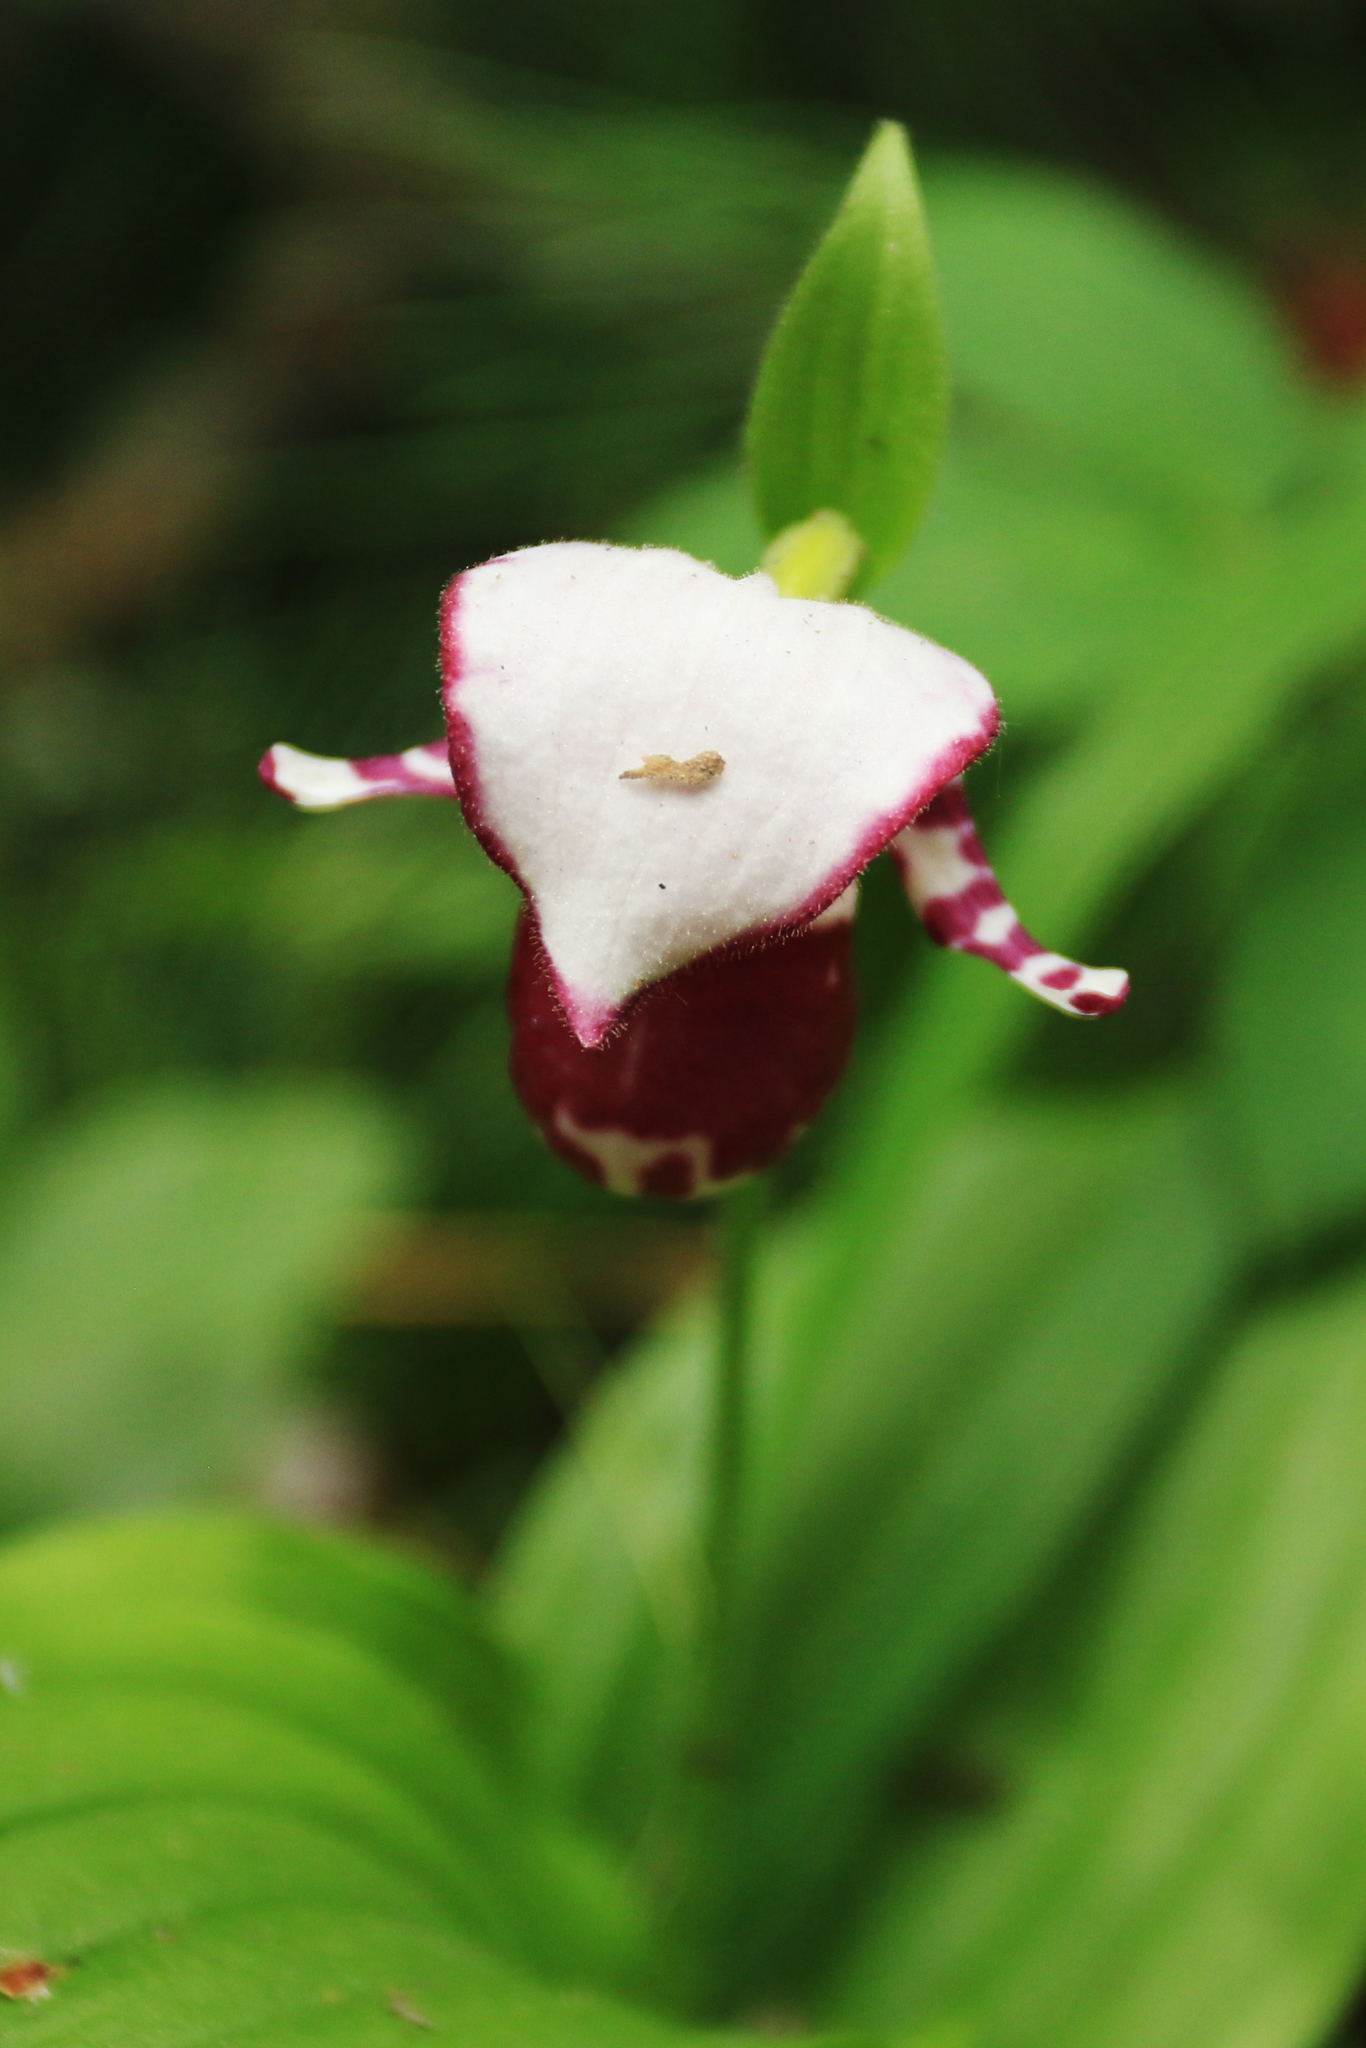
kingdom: Plantae
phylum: Tracheophyta
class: Liliopsida
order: Asparagales
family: Orchidaceae
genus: Cypripedium
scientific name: Cypripedium guttatum
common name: Pink lady slipper
